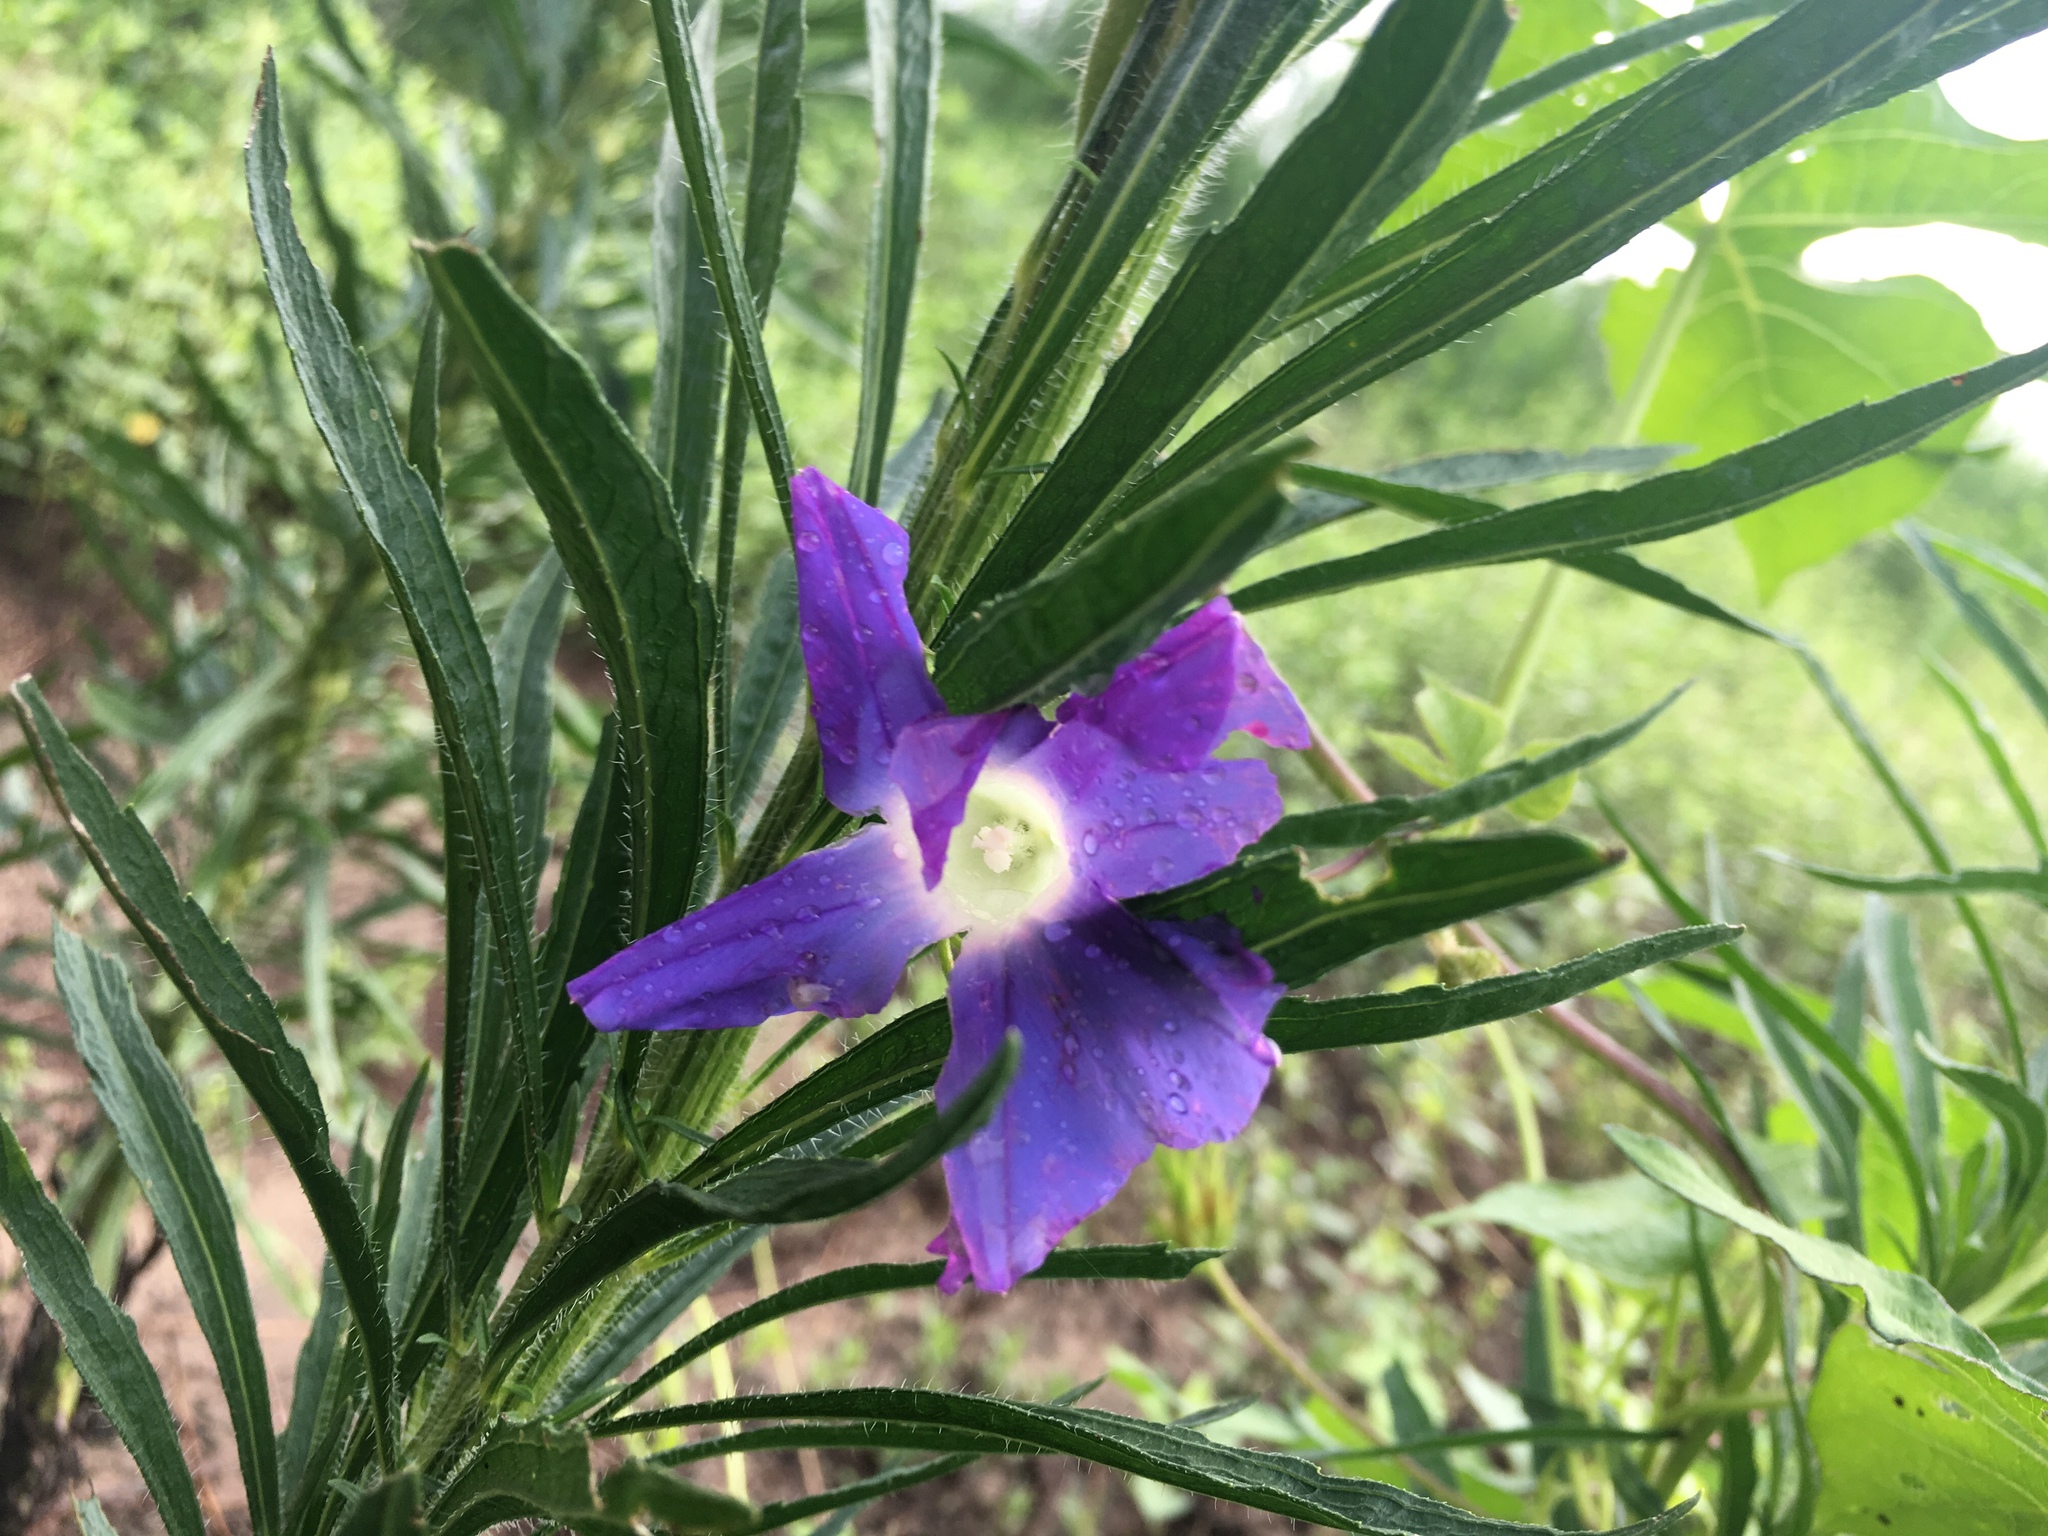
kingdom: Plantae
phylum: Tracheophyta
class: Magnoliopsida
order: Solanales
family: Convolvulaceae
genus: Ipomoea
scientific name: Ipomoea hederacea
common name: Ivy-leaved morning-glory
